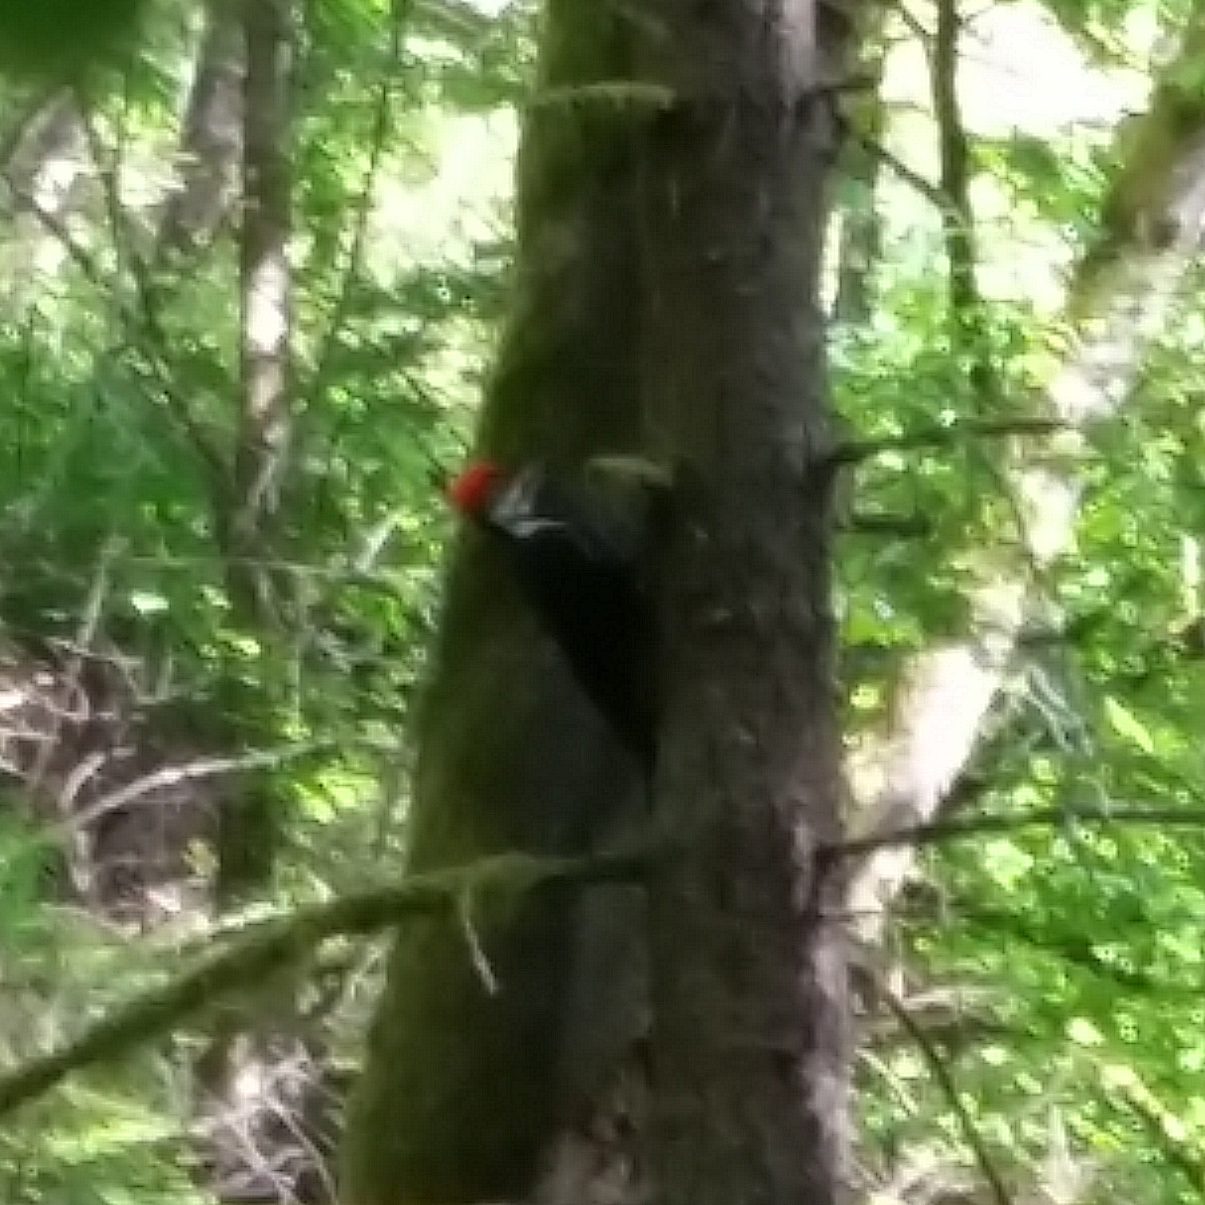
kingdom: Animalia
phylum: Chordata
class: Aves
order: Piciformes
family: Picidae
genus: Dryocopus
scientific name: Dryocopus pileatus
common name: Pileated woodpecker
